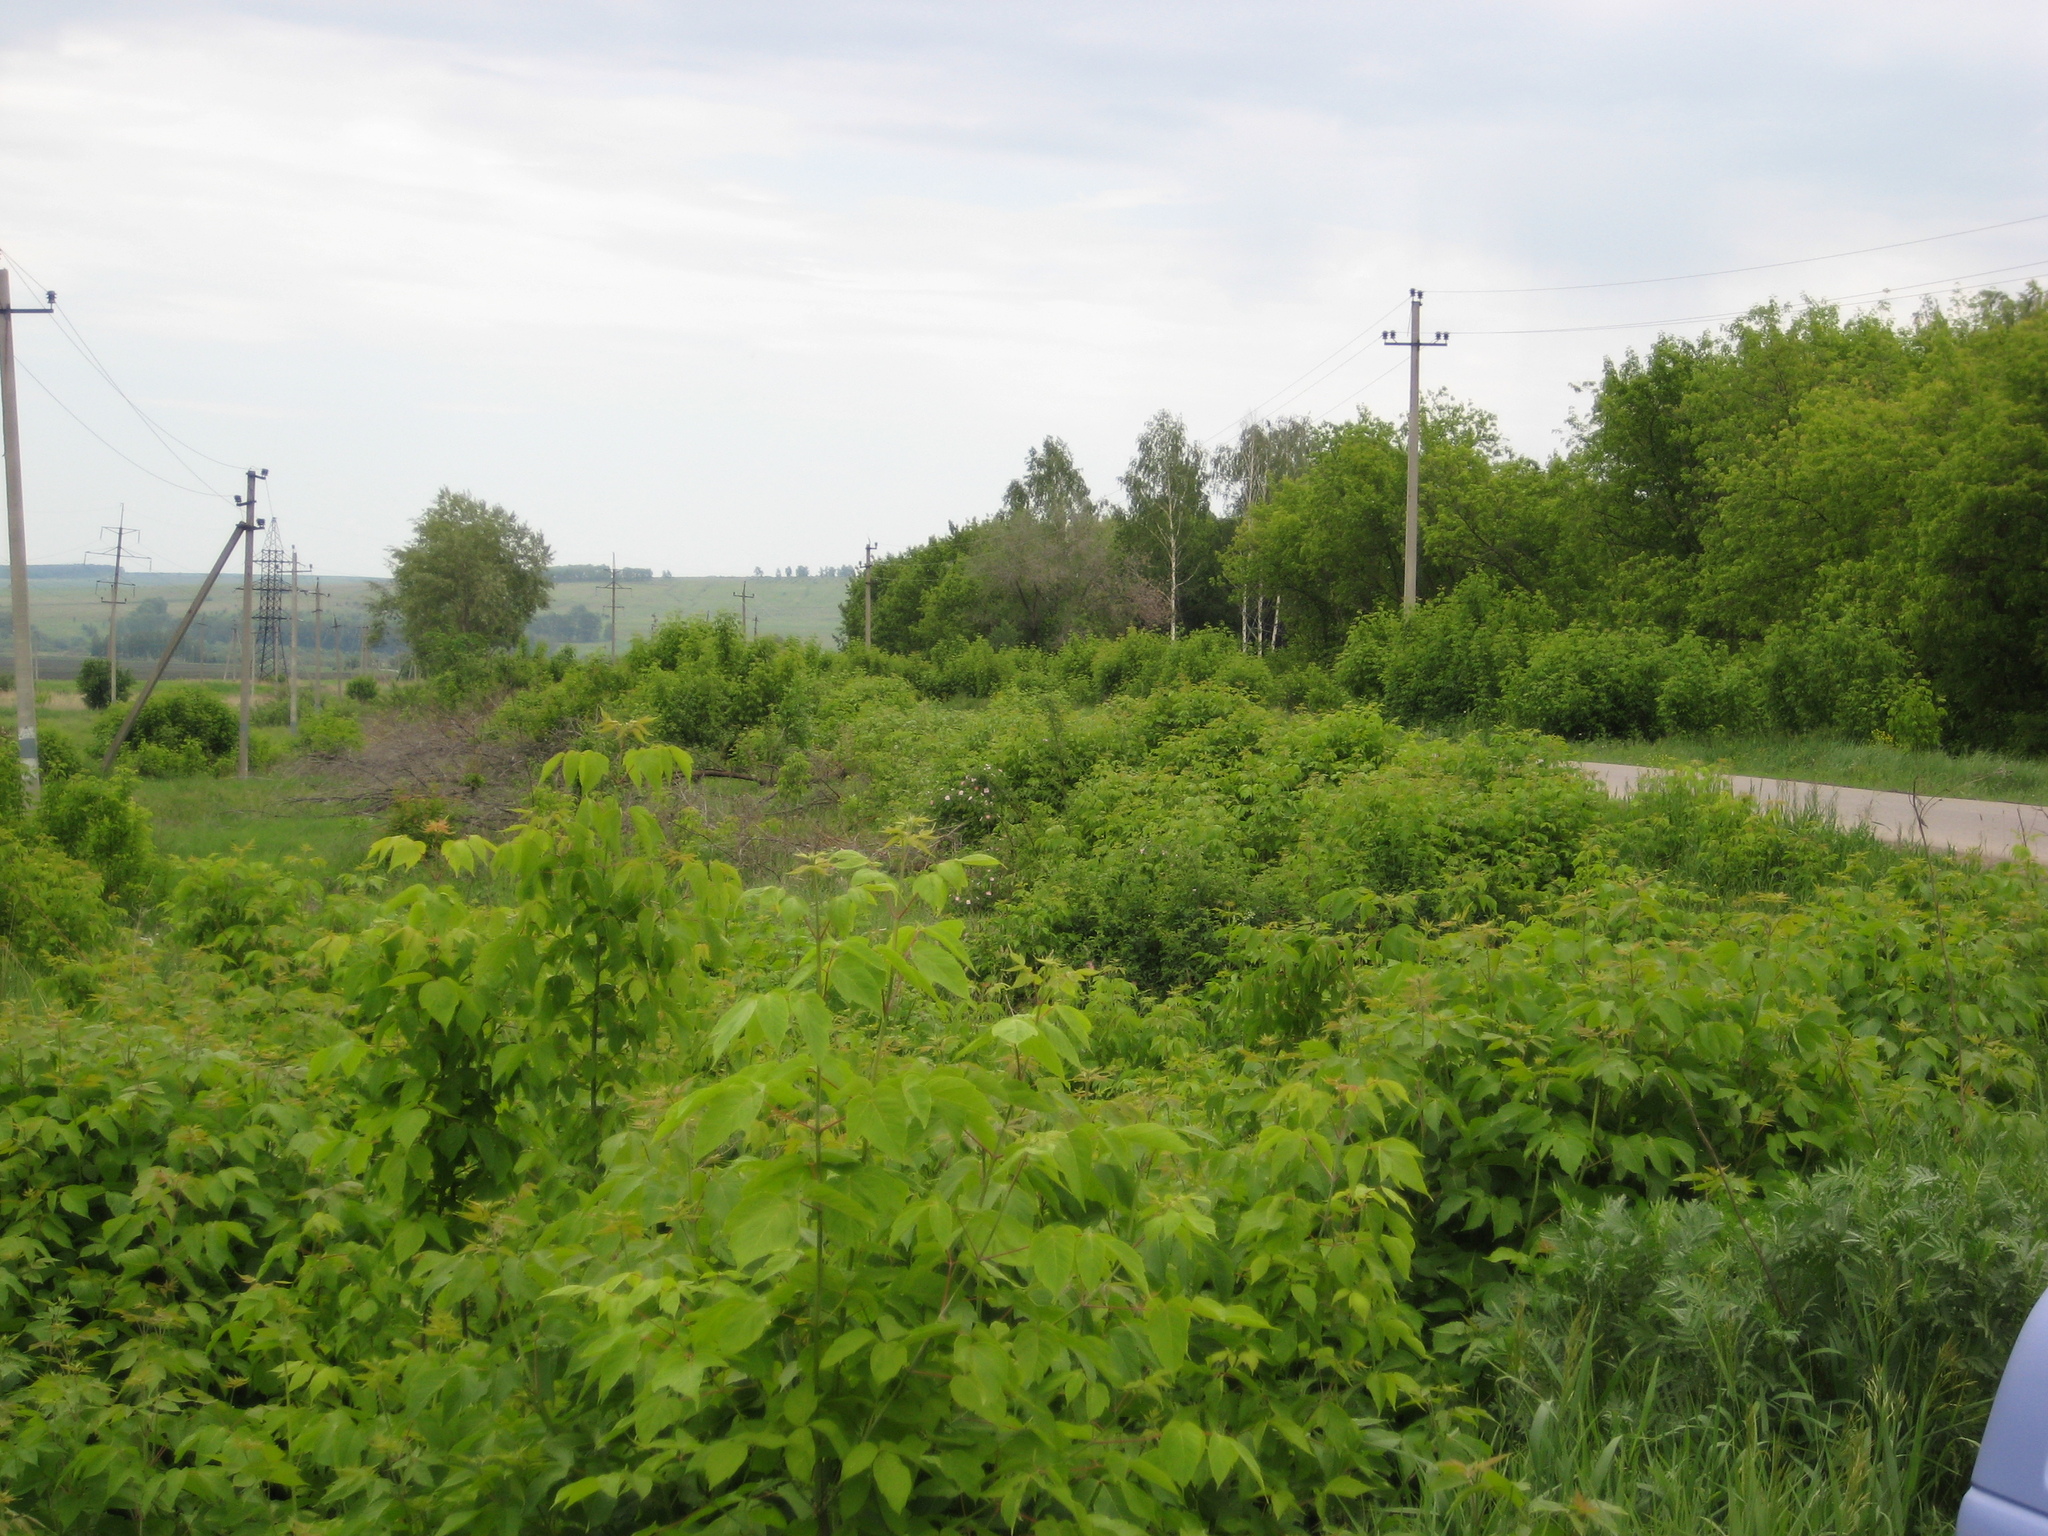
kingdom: Plantae
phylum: Tracheophyta
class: Magnoliopsida
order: Sapindales
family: Sapindaceae
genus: Acer
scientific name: Acer negundo
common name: Ashleaf maple
